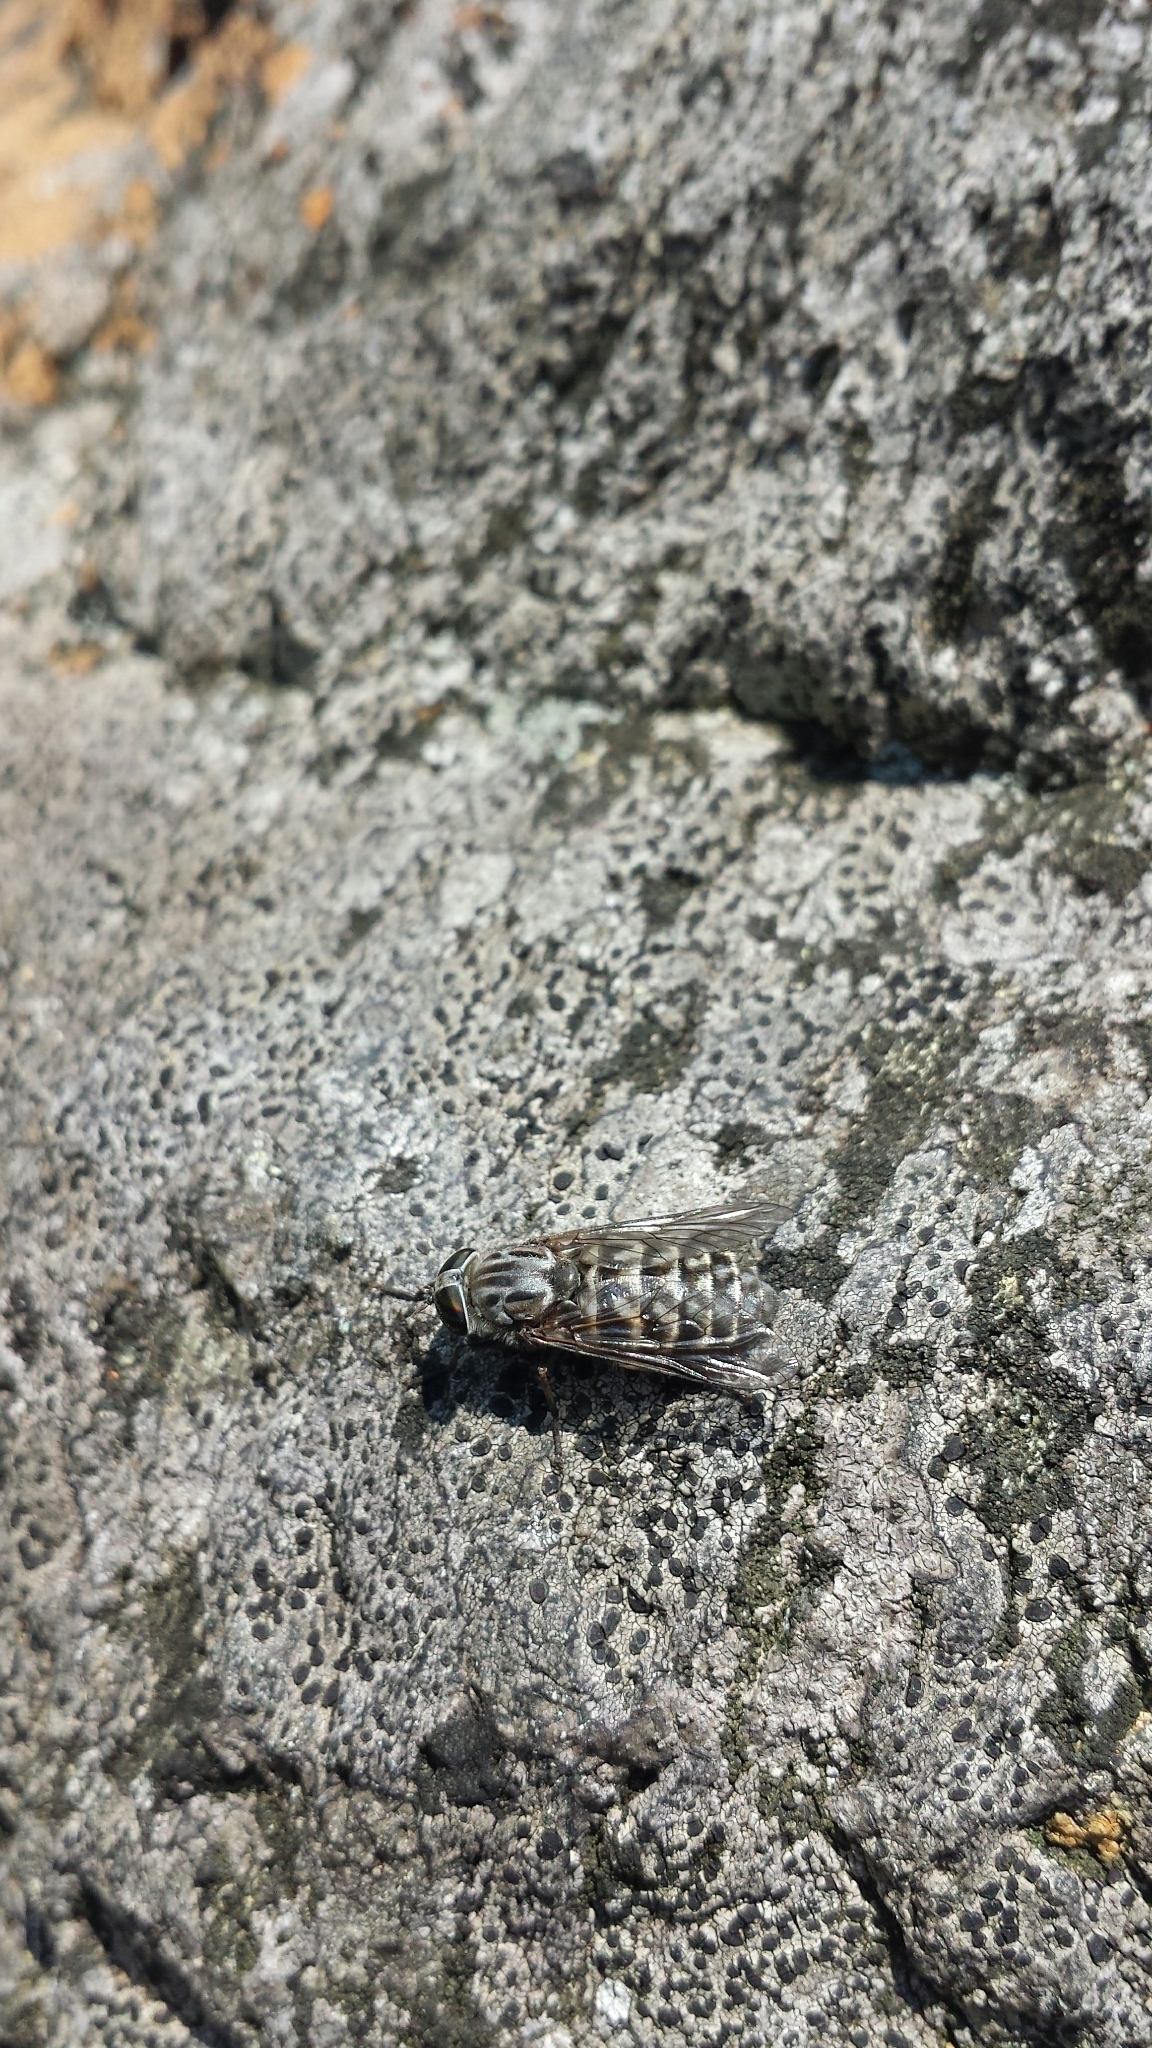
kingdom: Animalia
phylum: Arthropoda
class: Insecta
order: Diptera
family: Tabanidae
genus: Tabanus
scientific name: Tabanus vivax
